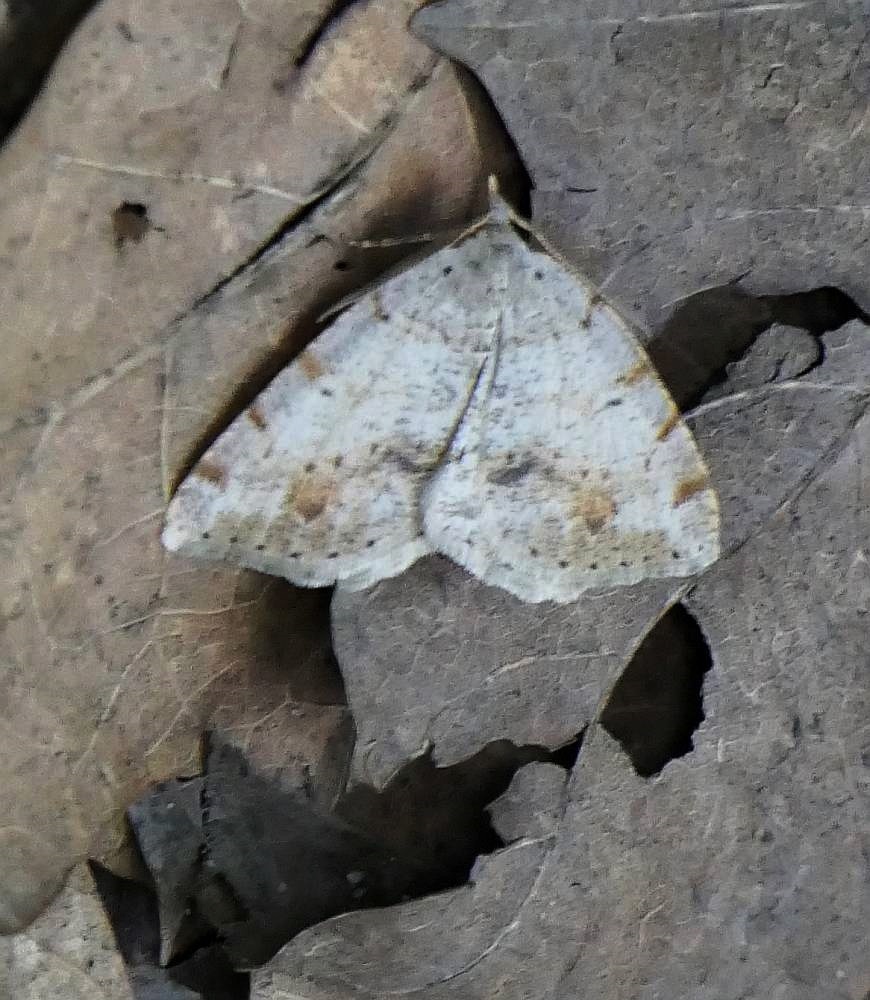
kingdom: Animalia
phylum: Arthropoda
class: Insecta
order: Lepidoptera
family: Geometridae
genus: Macaria
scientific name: Macaria exauspicata
